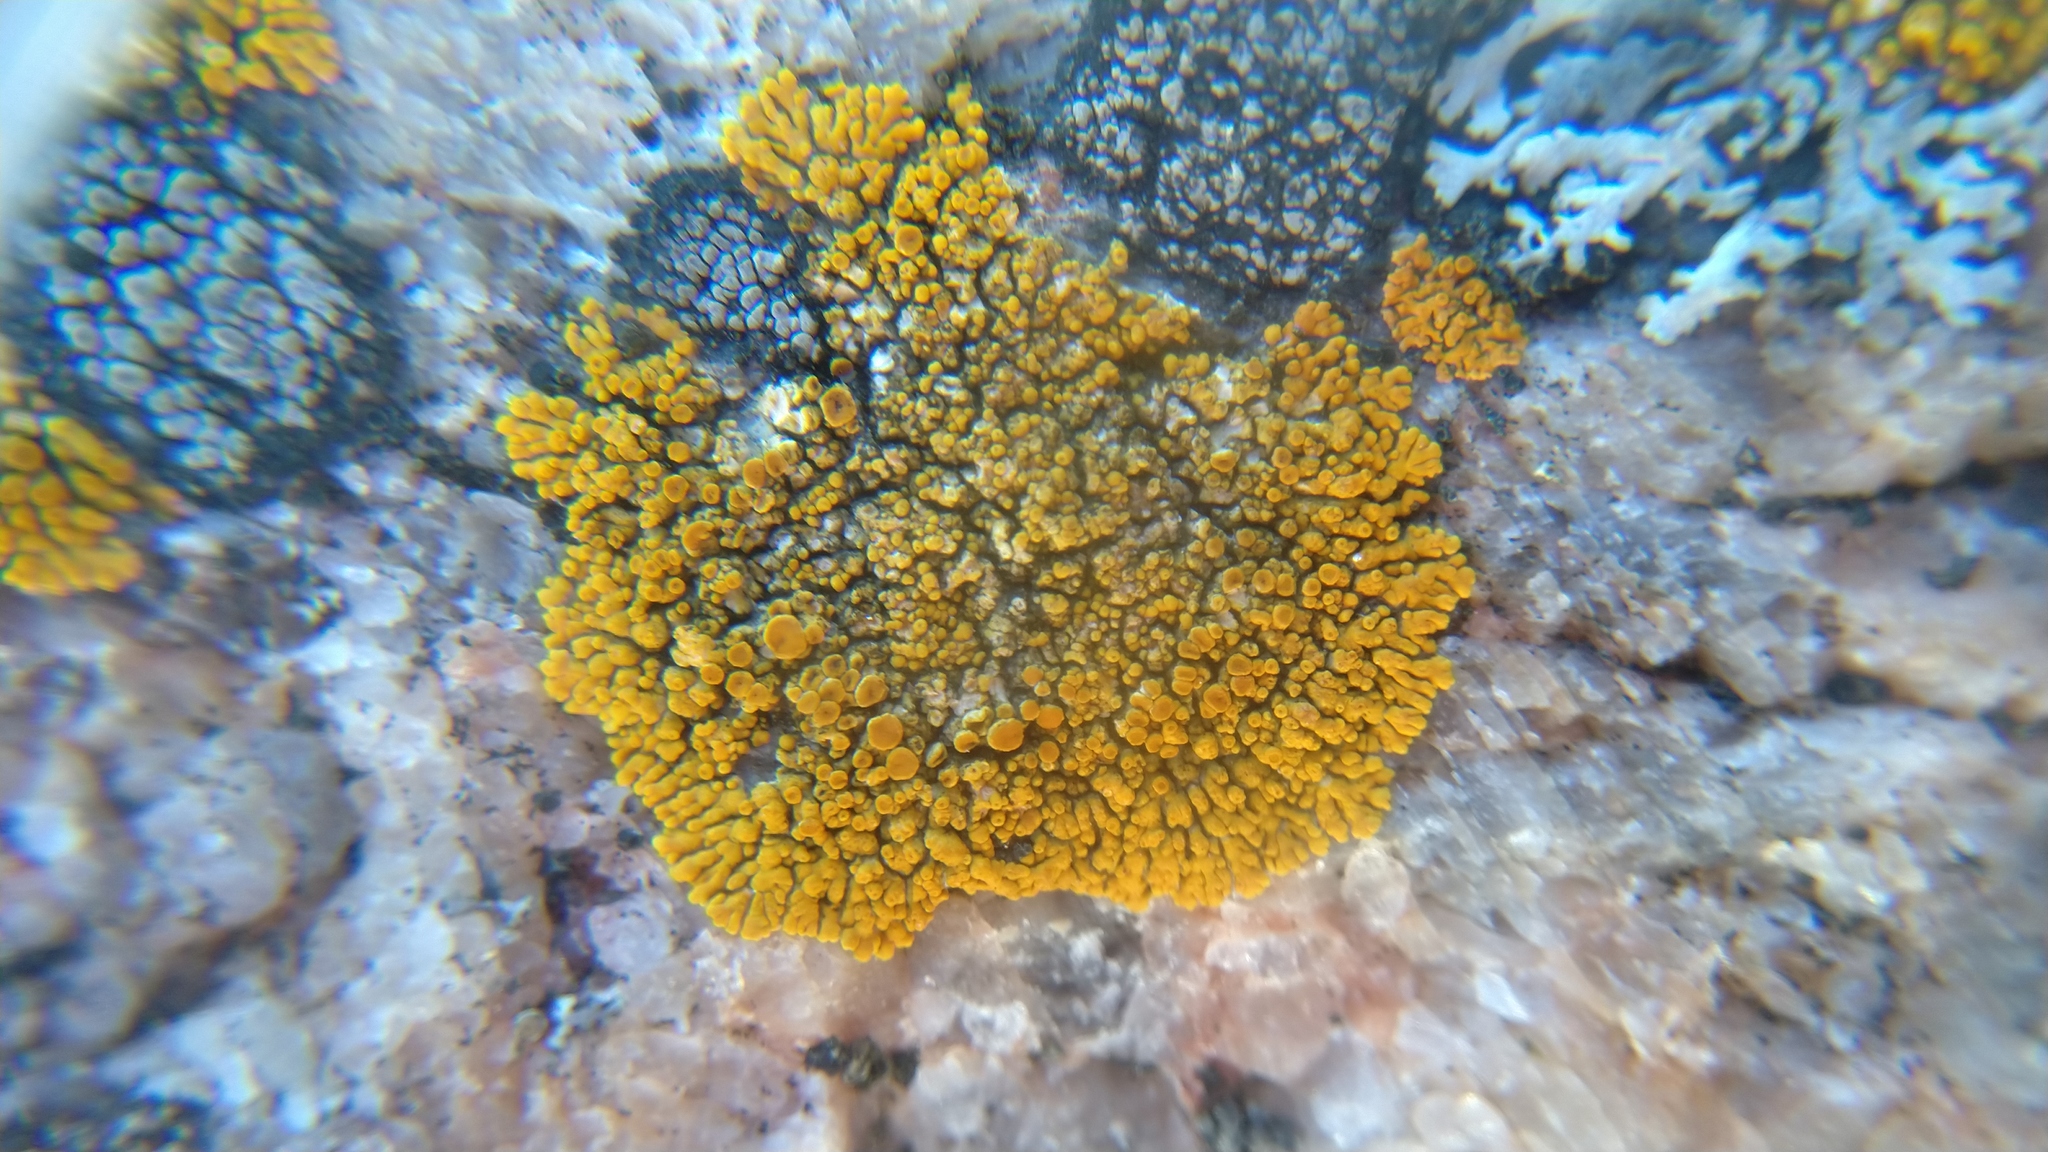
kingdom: Fungi
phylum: Ascomycota
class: Lecanoromycetes
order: Teloschistales
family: Teloschistaceae
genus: Athallia
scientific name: Athallia scopularis
